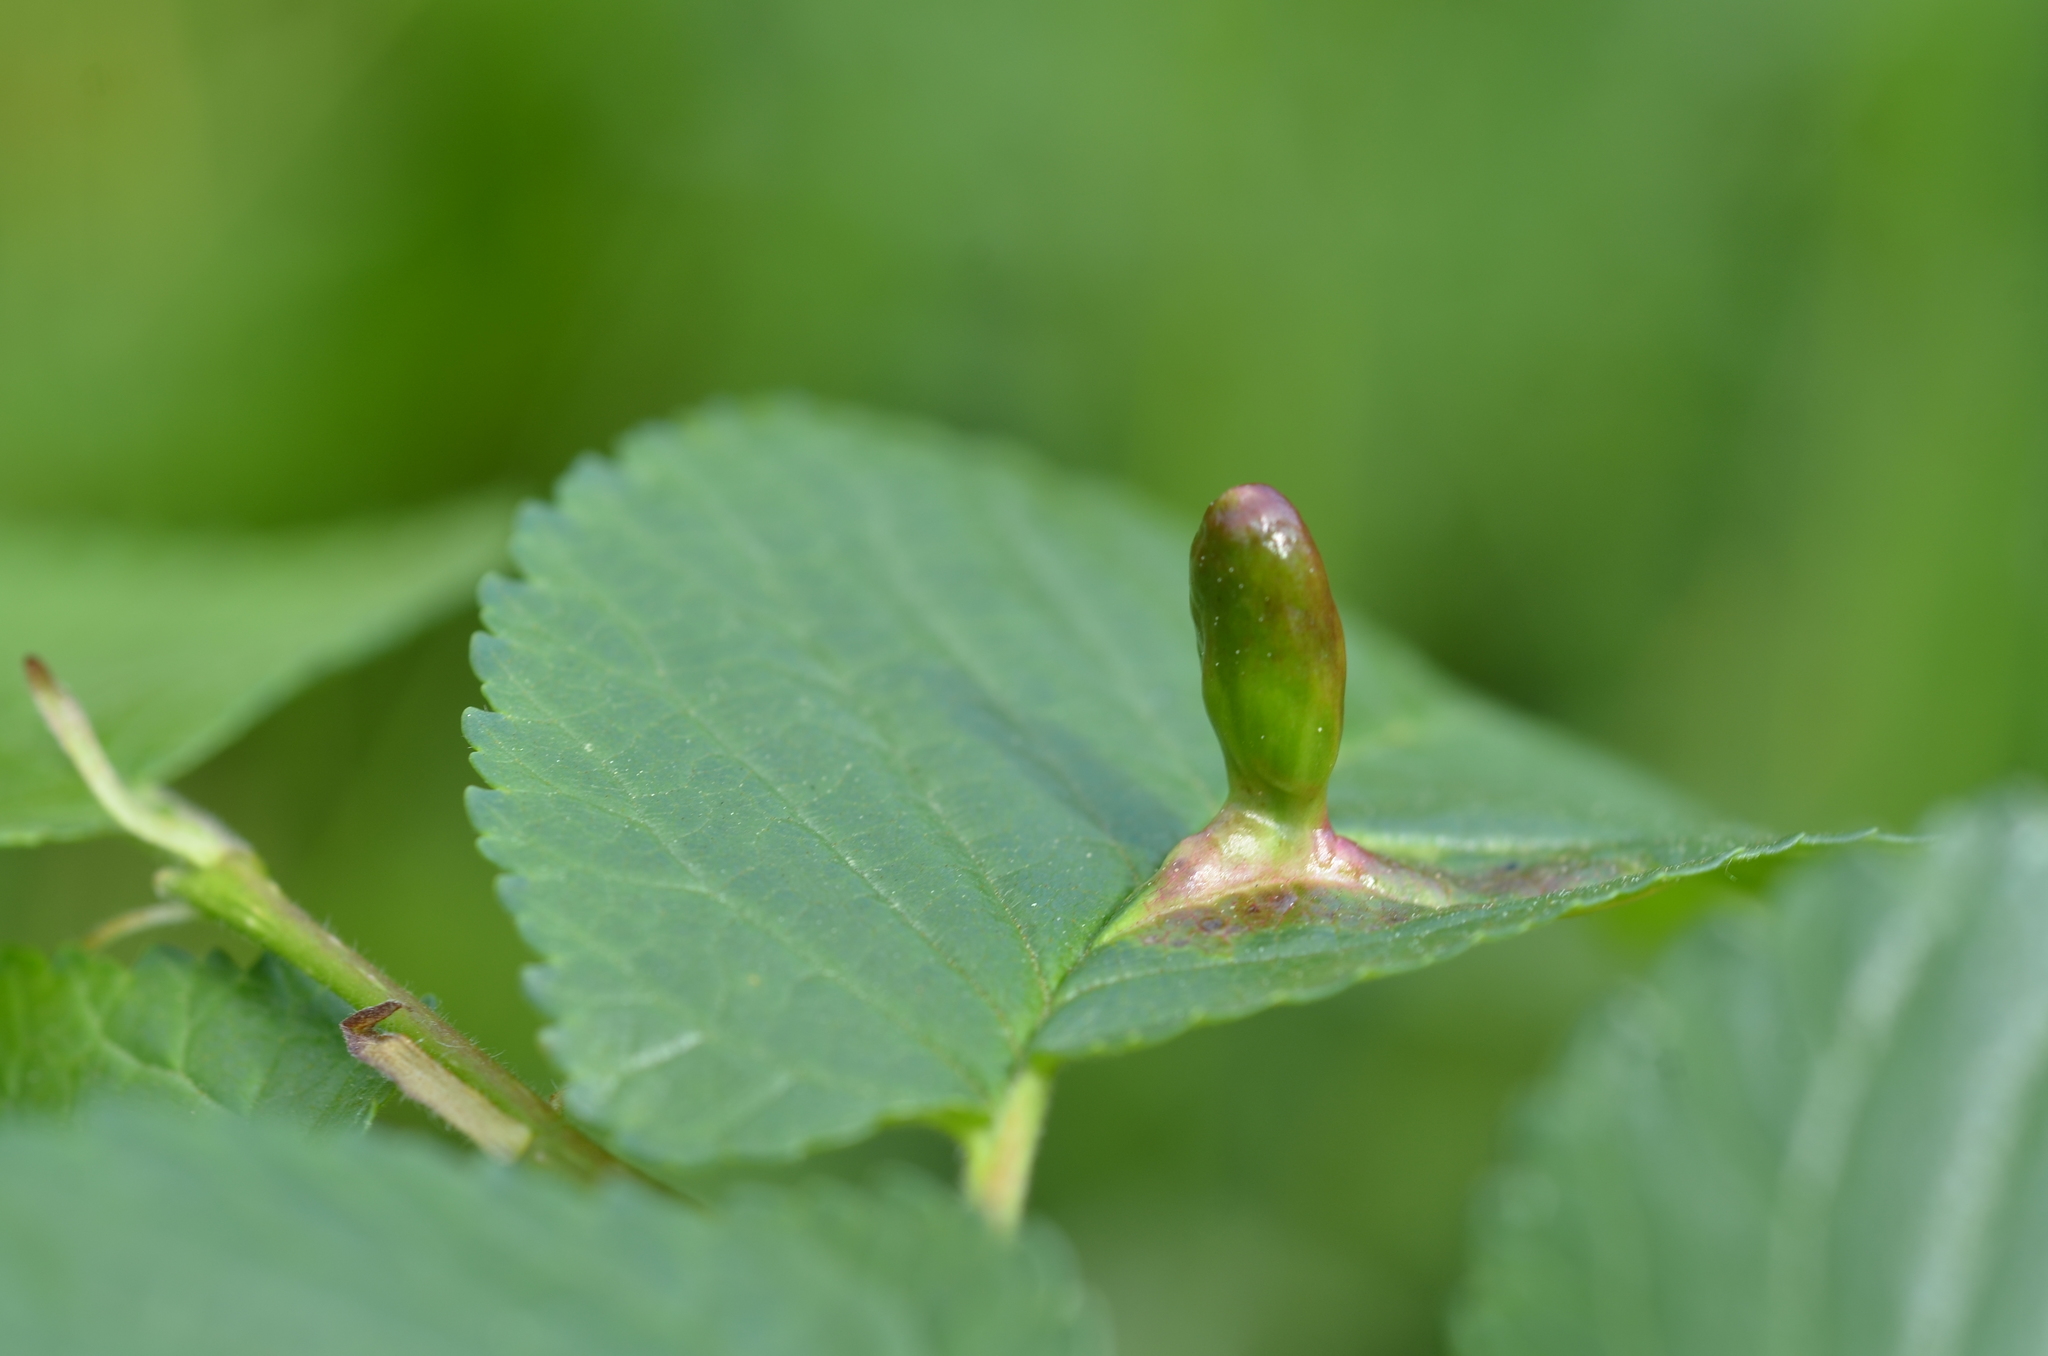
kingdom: Animalia
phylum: Arthropoda
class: Insecta
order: Hemiptera
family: Aphididae
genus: Tetraneura
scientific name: Tetraneura ulmi
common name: Aphid
